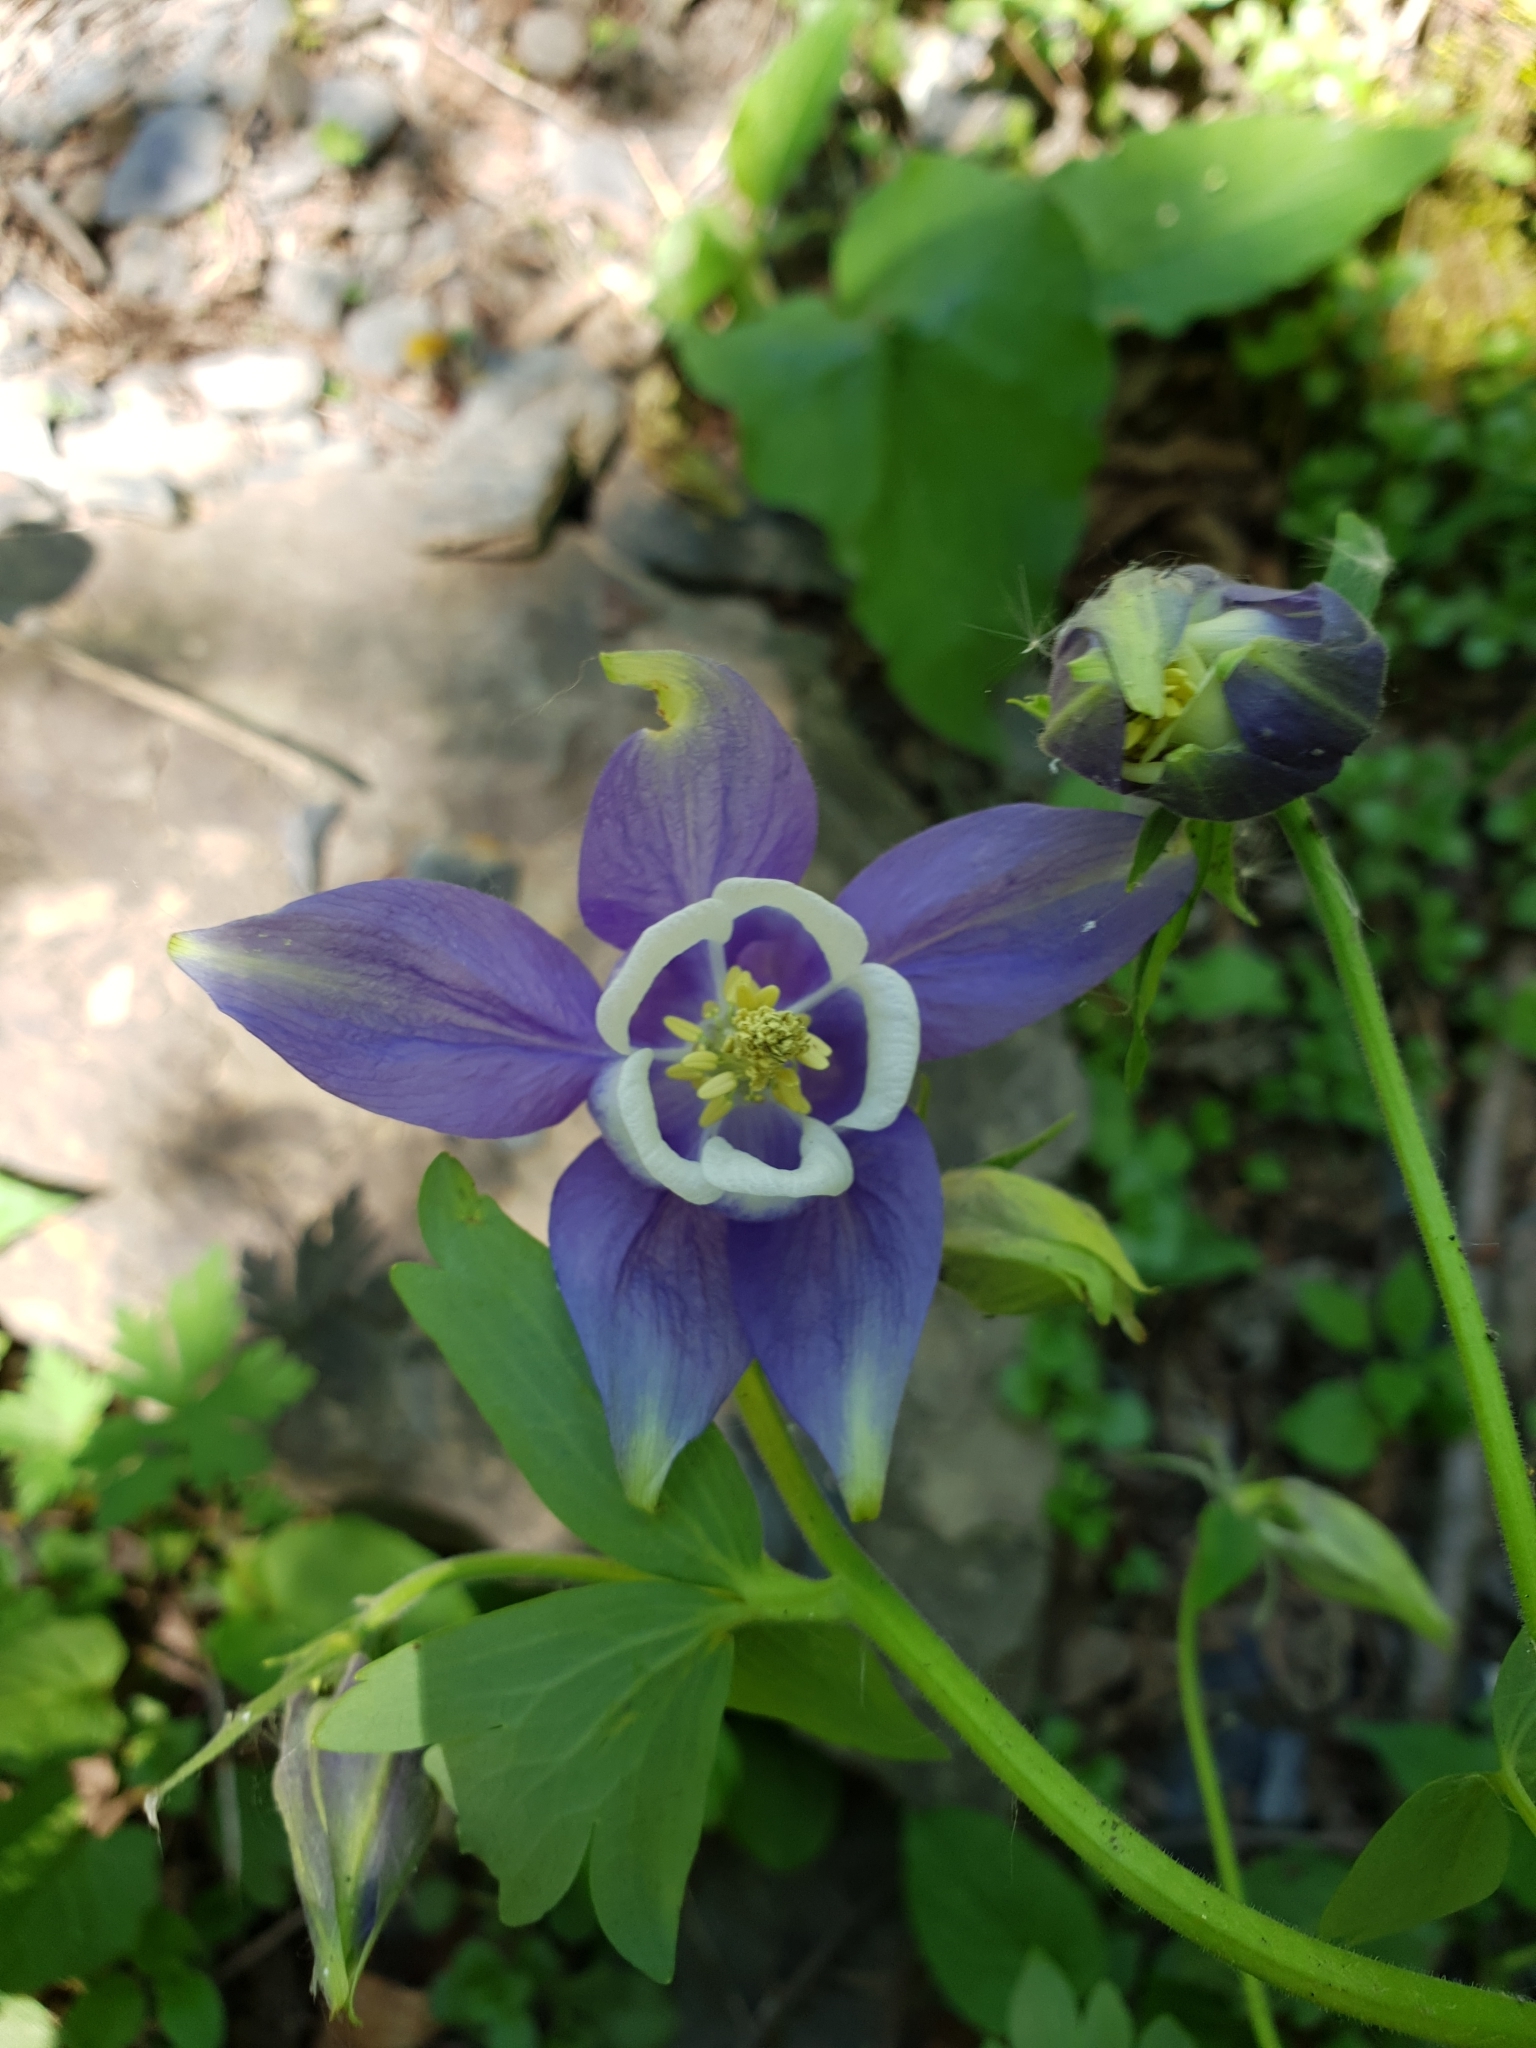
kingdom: Plantae
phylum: Tracheophyta
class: Magnoliopsida
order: Ranunculales
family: Ranunculaceae
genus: Aquilegia
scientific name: Aquilegia olympica
